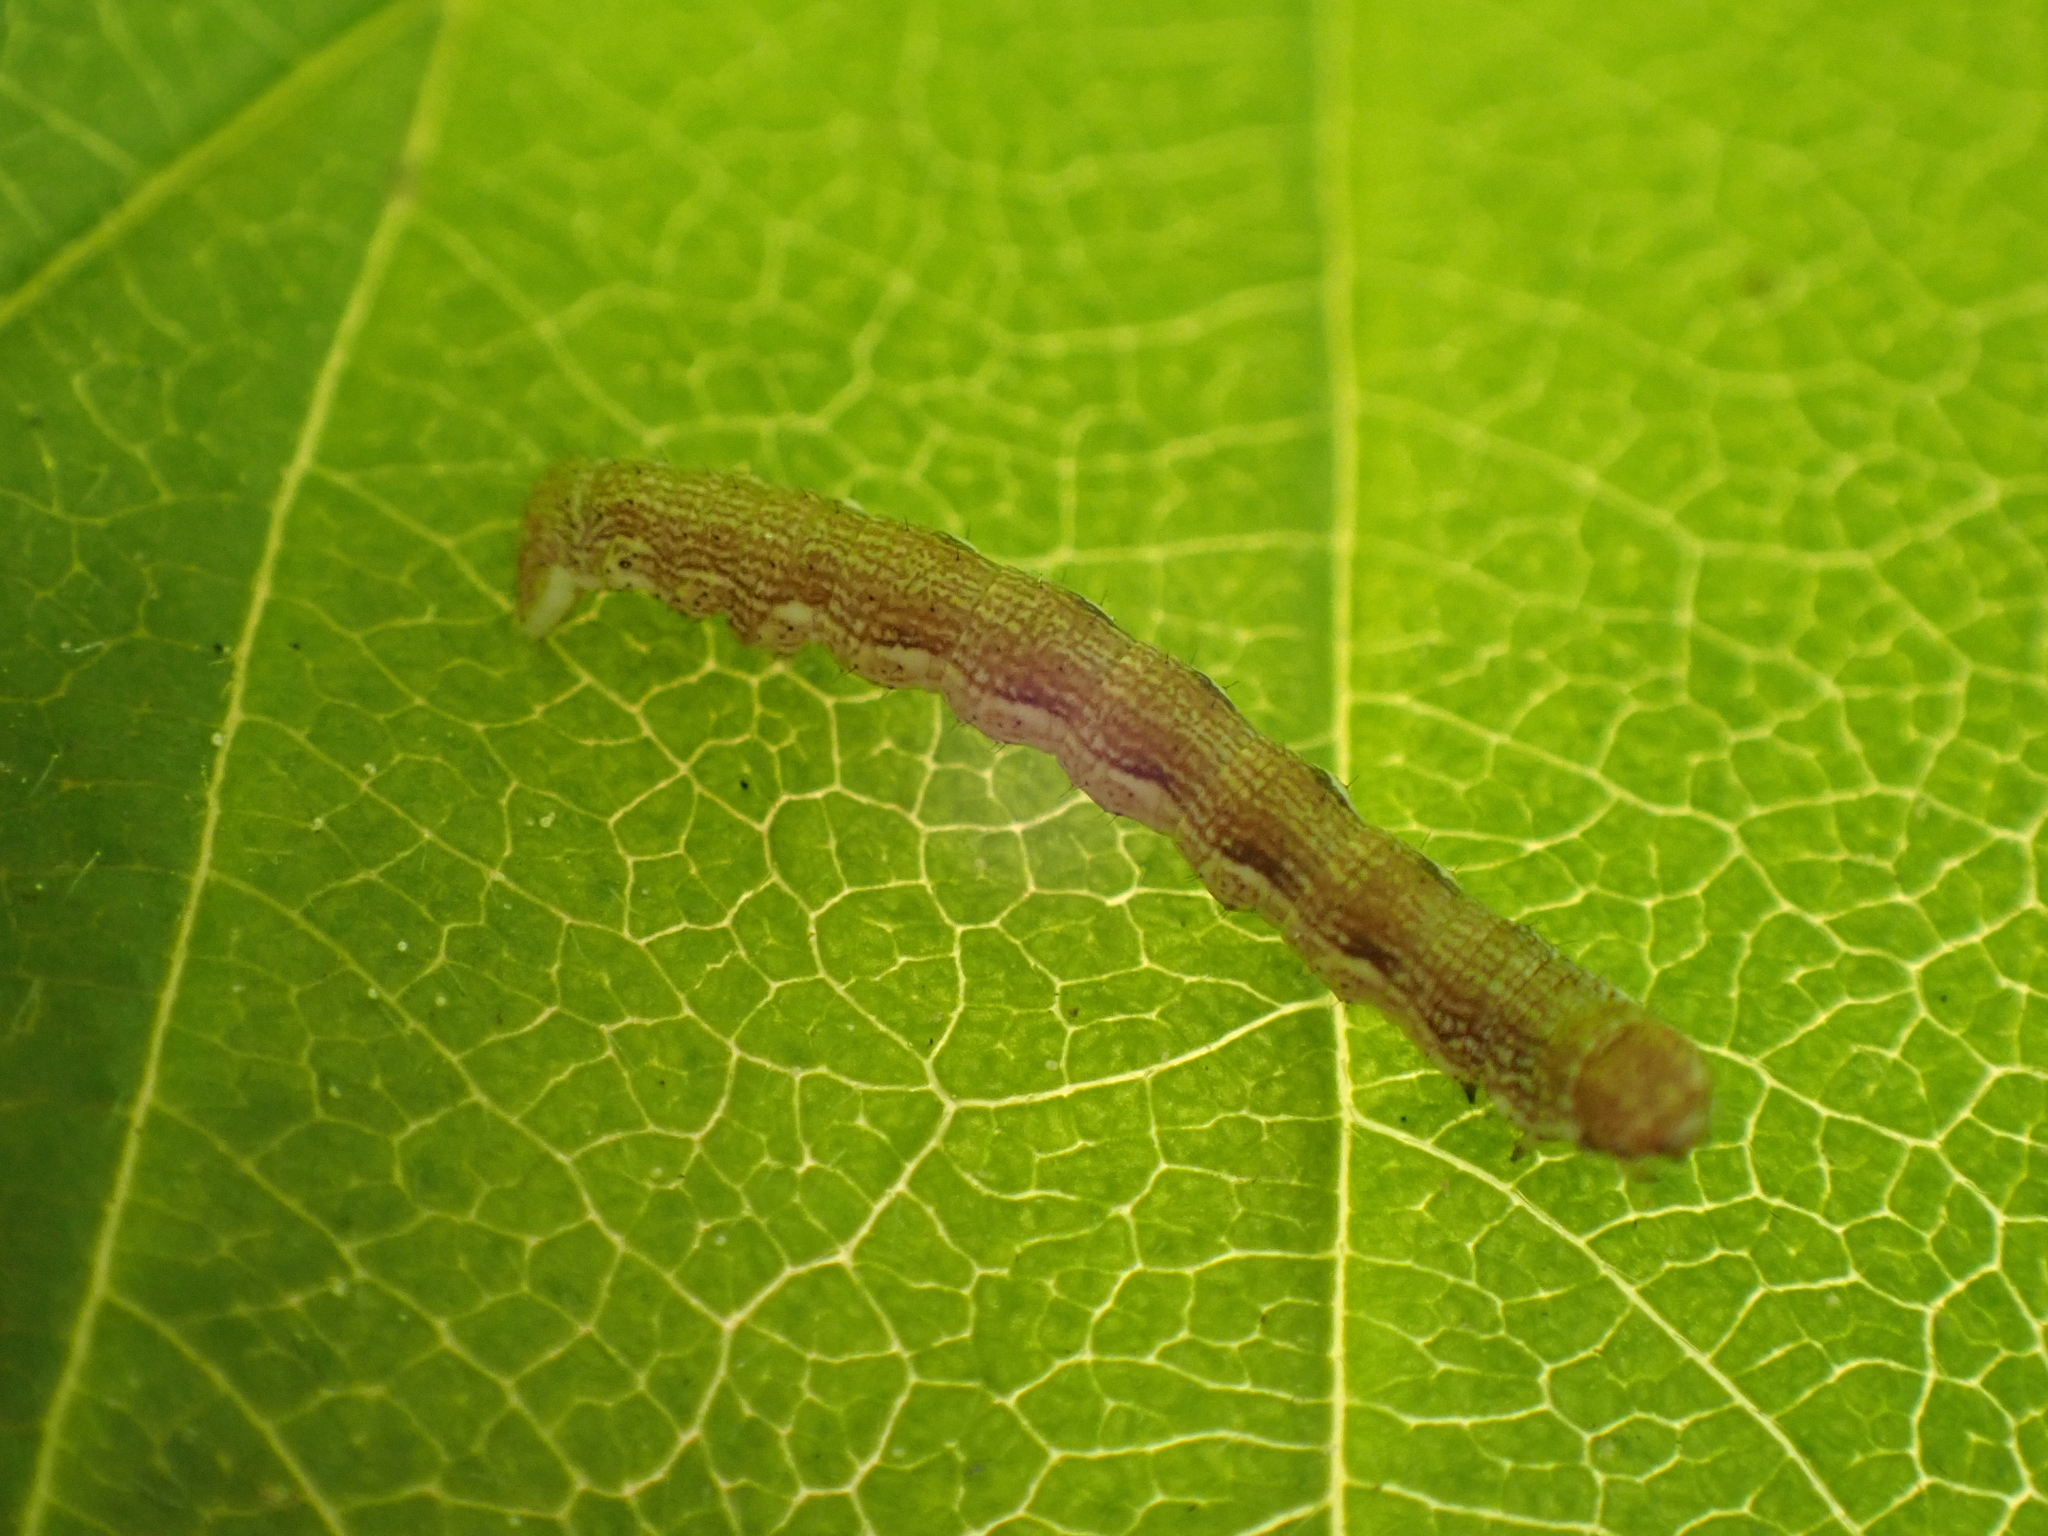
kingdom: Animalia
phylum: Arthropoda
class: Insecta
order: Lepidoptera
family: Geometridae
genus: Erannis
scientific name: Erannis defoliaria
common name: Mottled umber
